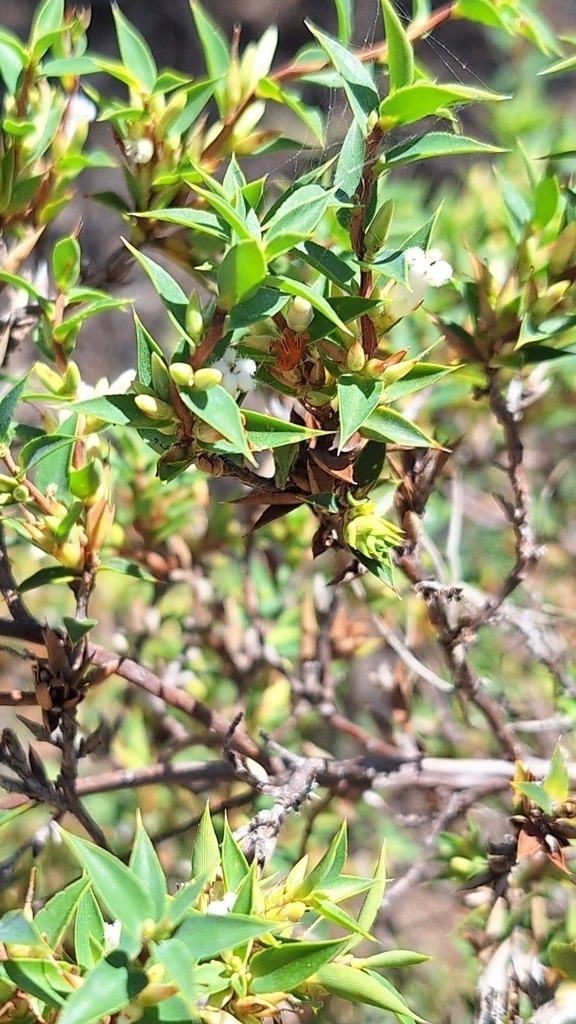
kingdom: Plantae
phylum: Tracheophyta
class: Magnoliopsida
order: Ericales
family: Ericaceae
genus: Styphelia
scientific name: Styphelia rufa
